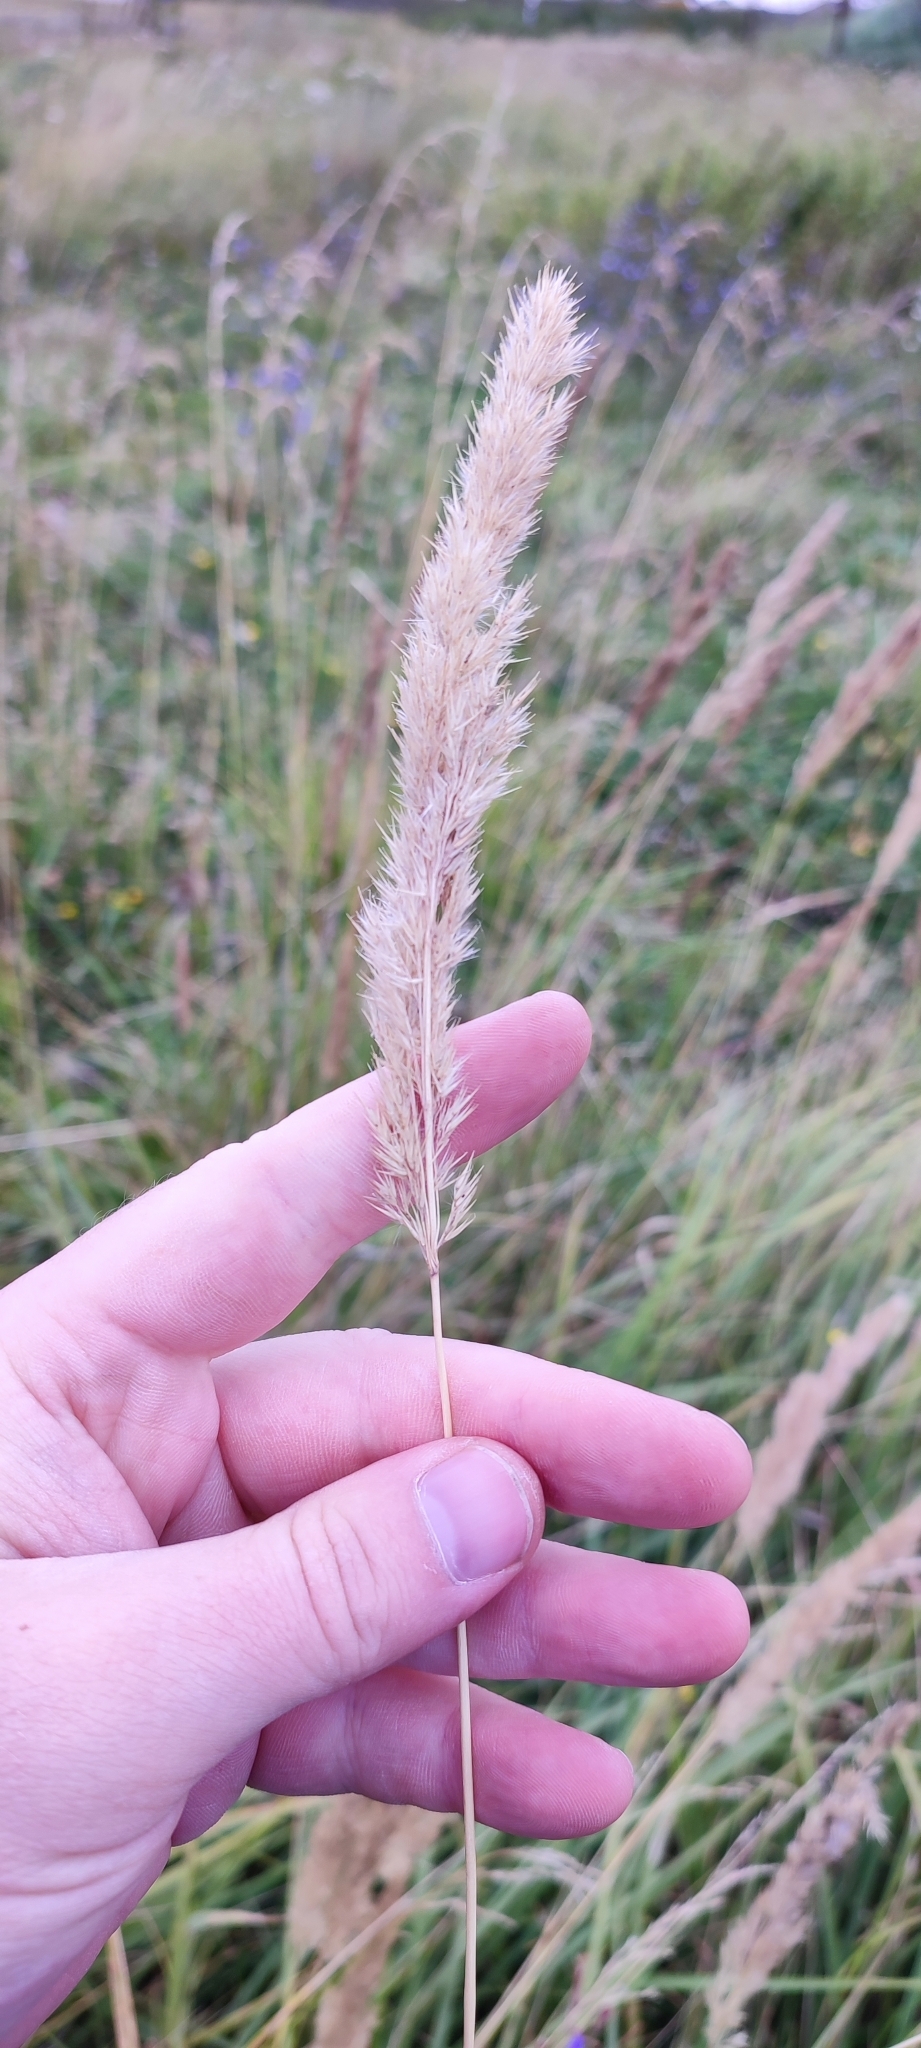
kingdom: Plantae
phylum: Tracheophyta
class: Liliopsida
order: Poales
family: Poaceae
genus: Calamagrostis
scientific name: Calamagrostis epigejos
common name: Wood small-reed
